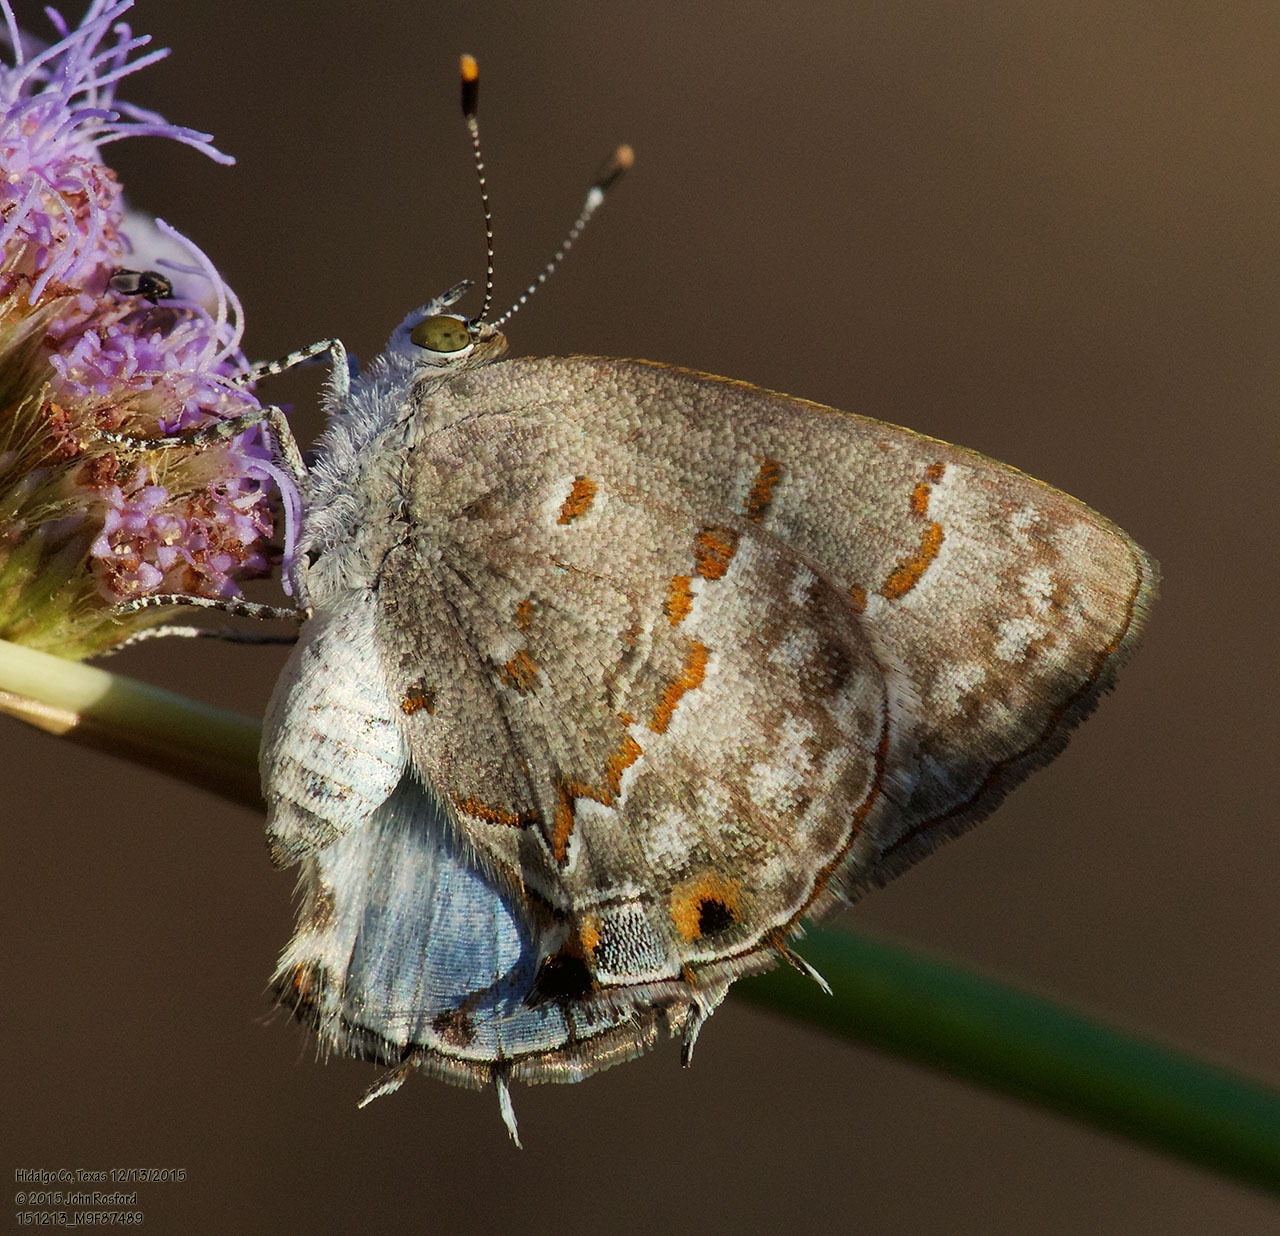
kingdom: Animalia
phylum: Arthropoda
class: Insecta
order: Lepidoptera
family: Lycaenidae
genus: Ministrymon
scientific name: Ministrymon clytie
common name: Clytie ministreak
